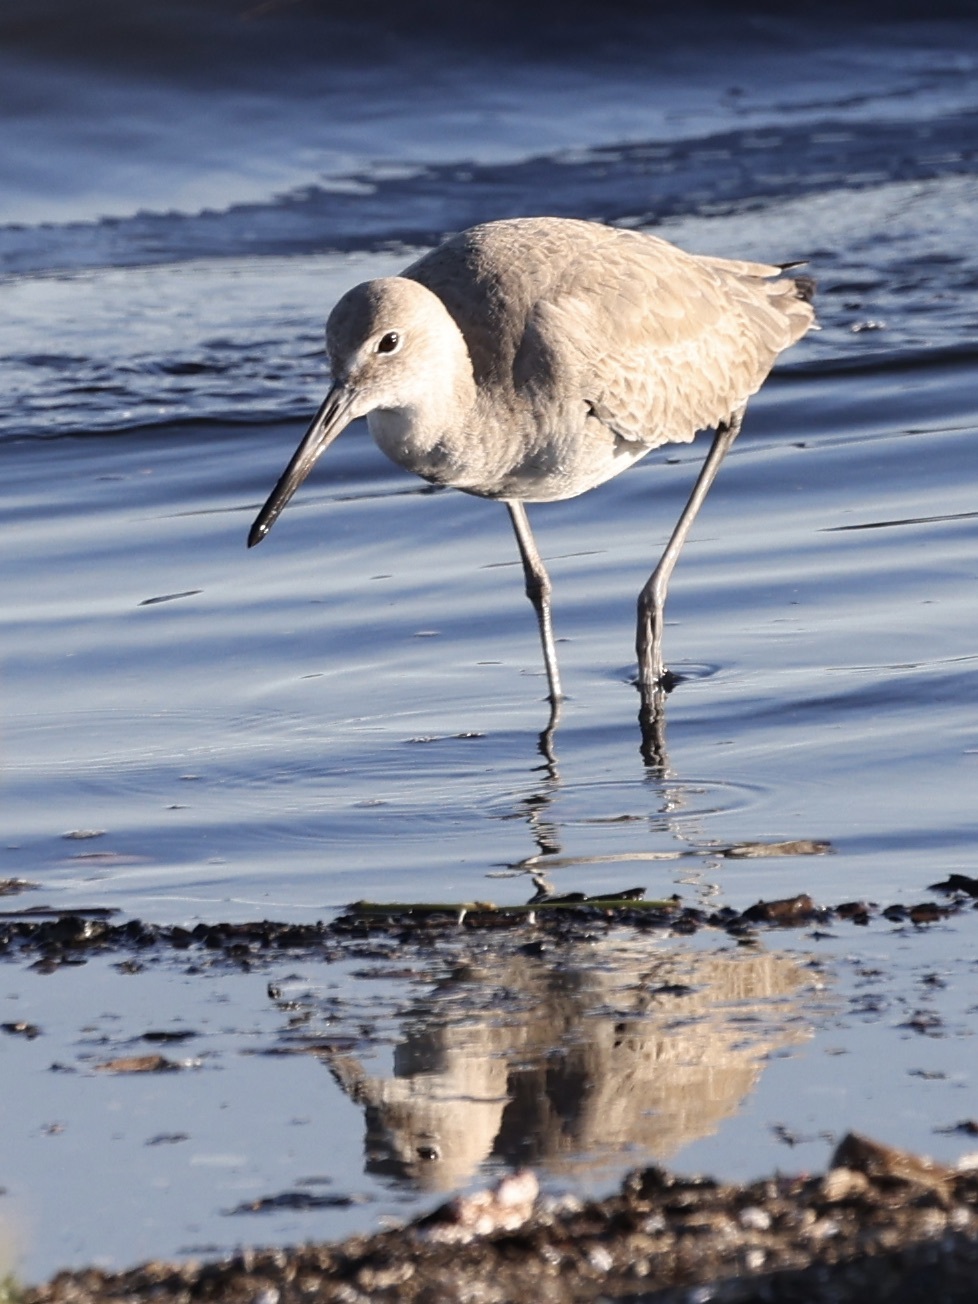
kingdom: Animalia
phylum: Chordata
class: Aves
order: Charadriiformes
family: Scolopacidae
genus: Tringa
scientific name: Tringa semipalmata
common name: Willet
